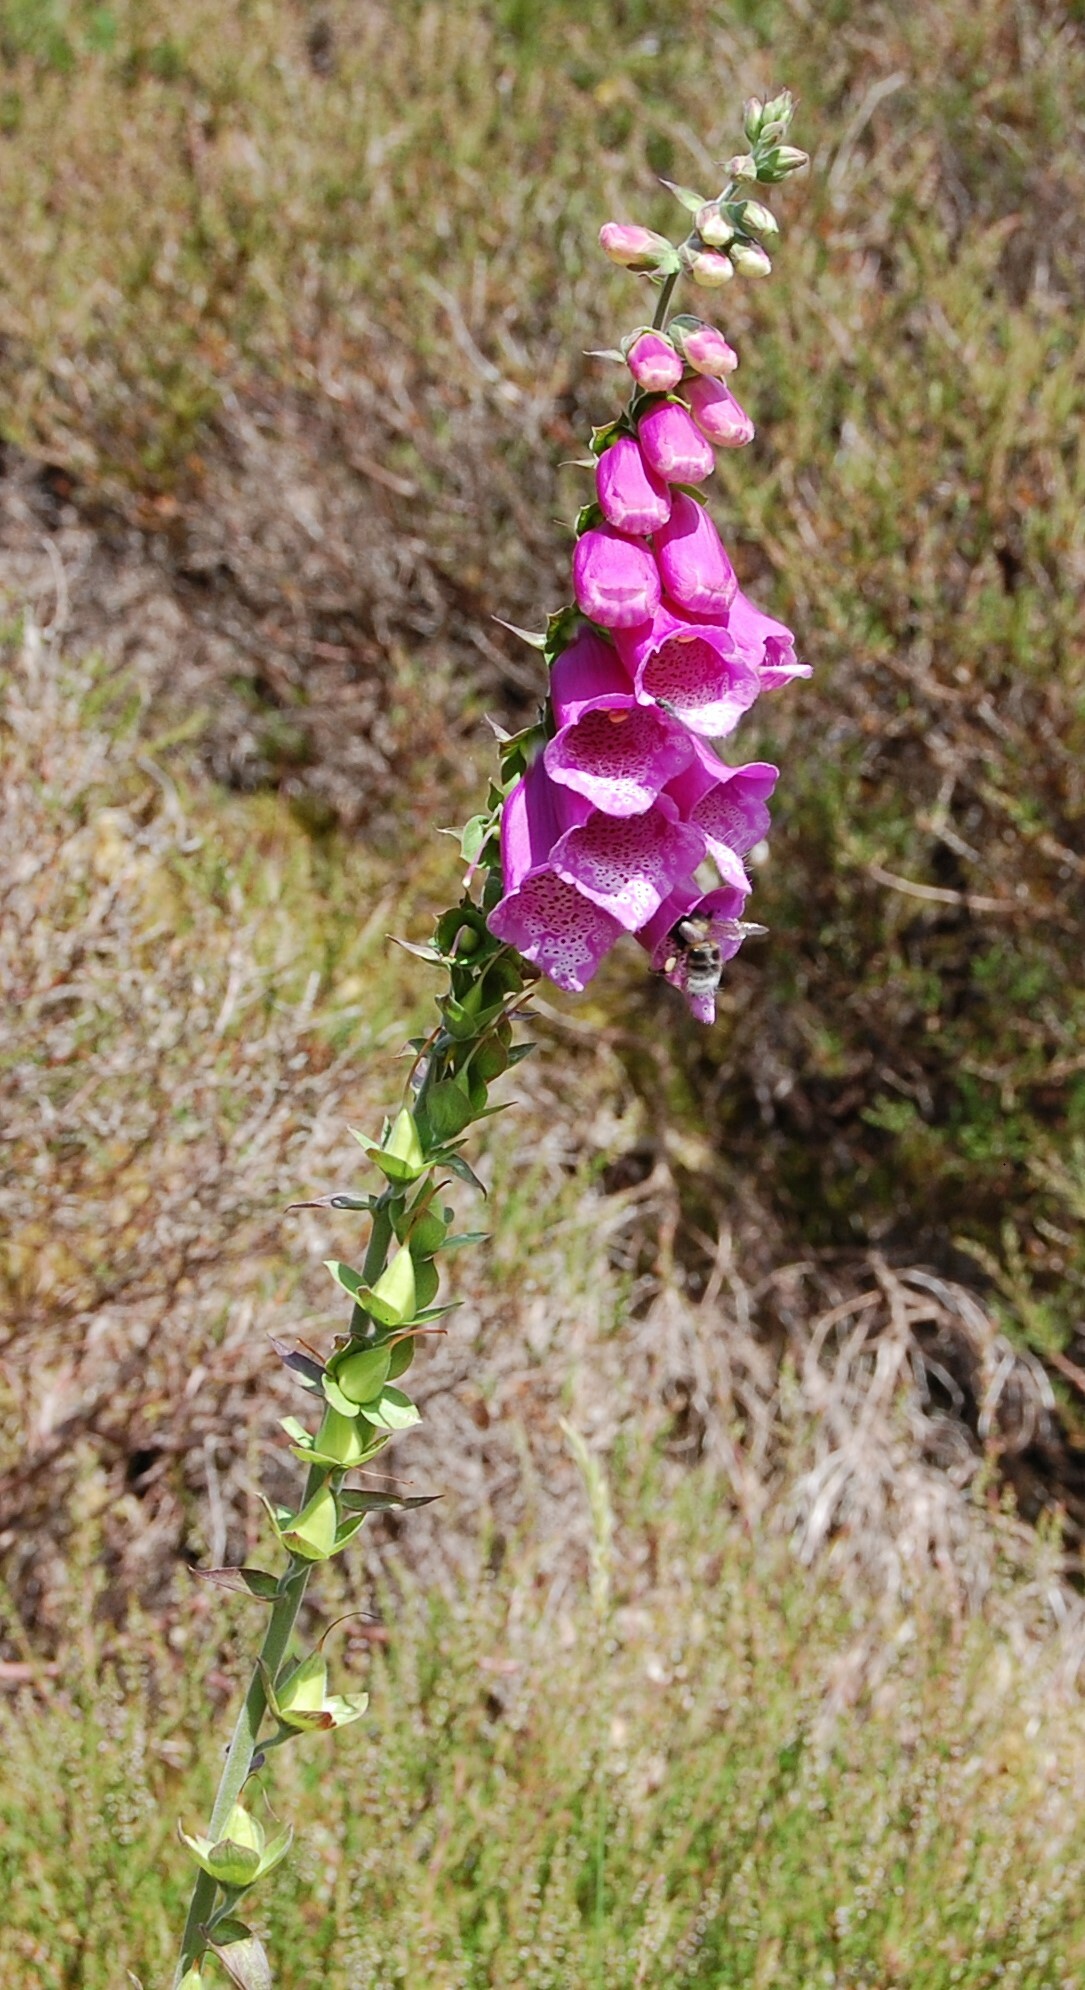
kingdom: Plantae
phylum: Tracheophyta
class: Magnoliopsida
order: Lamiales
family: Plantaginaceae
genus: Digitalis
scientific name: Digitalis purpurea
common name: Foxglove
